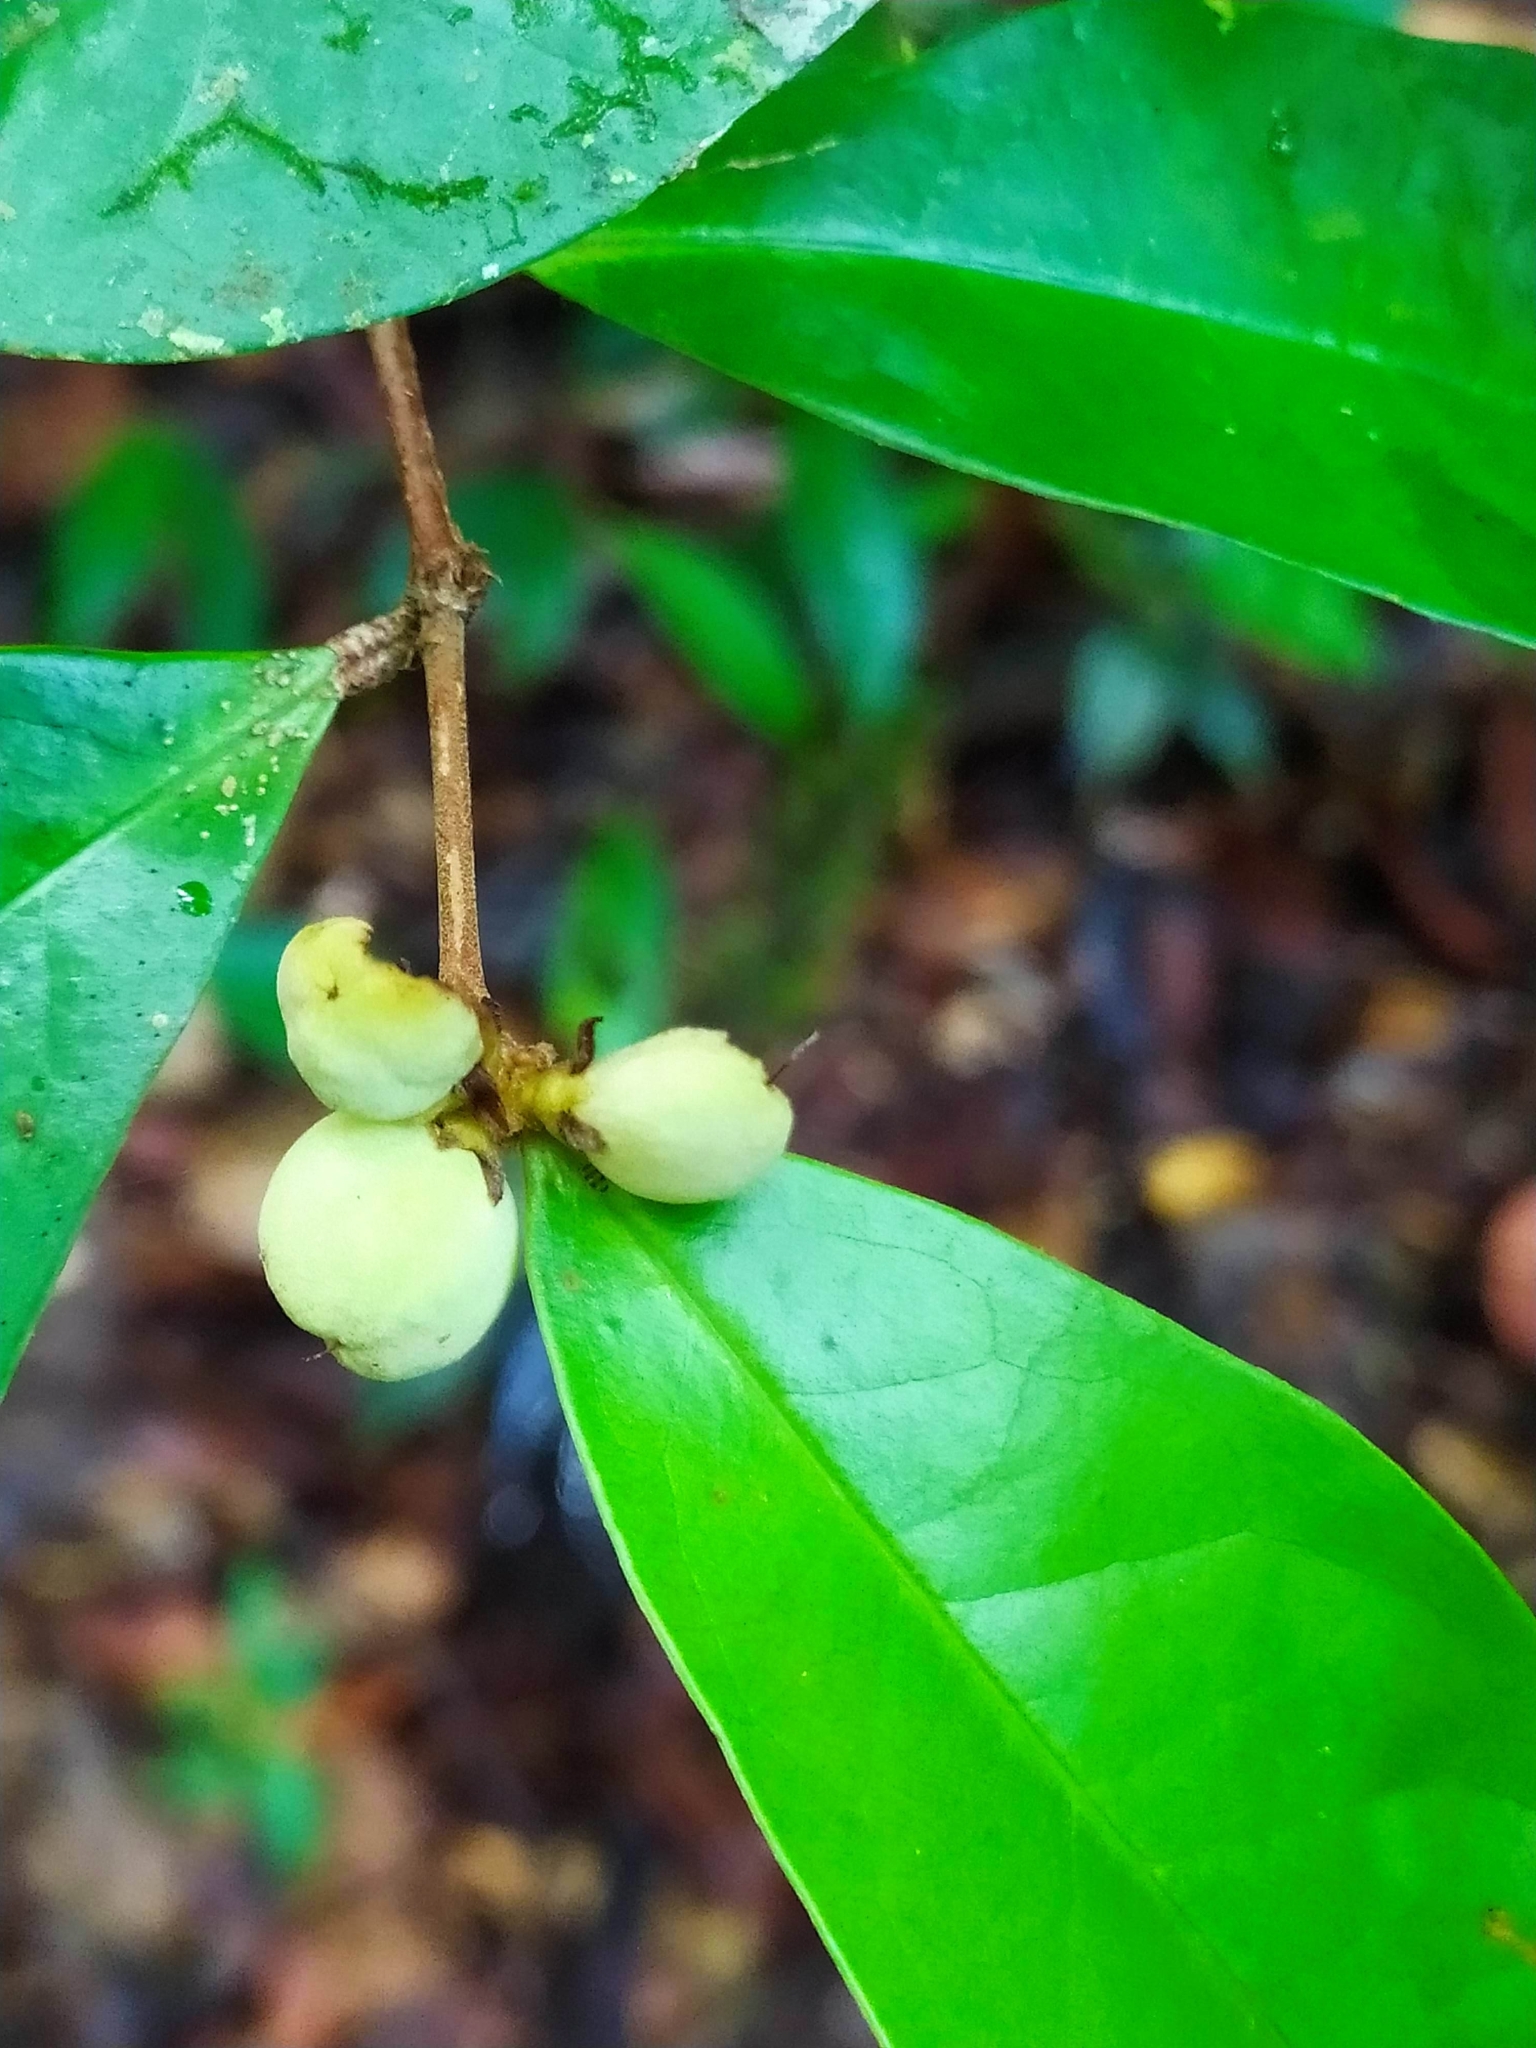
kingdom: Plantae
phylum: Tracheophyta
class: Magnoliopsida
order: Malpighiales
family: Dichapetalaceae
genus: Tapura
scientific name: Tapura guianensis
